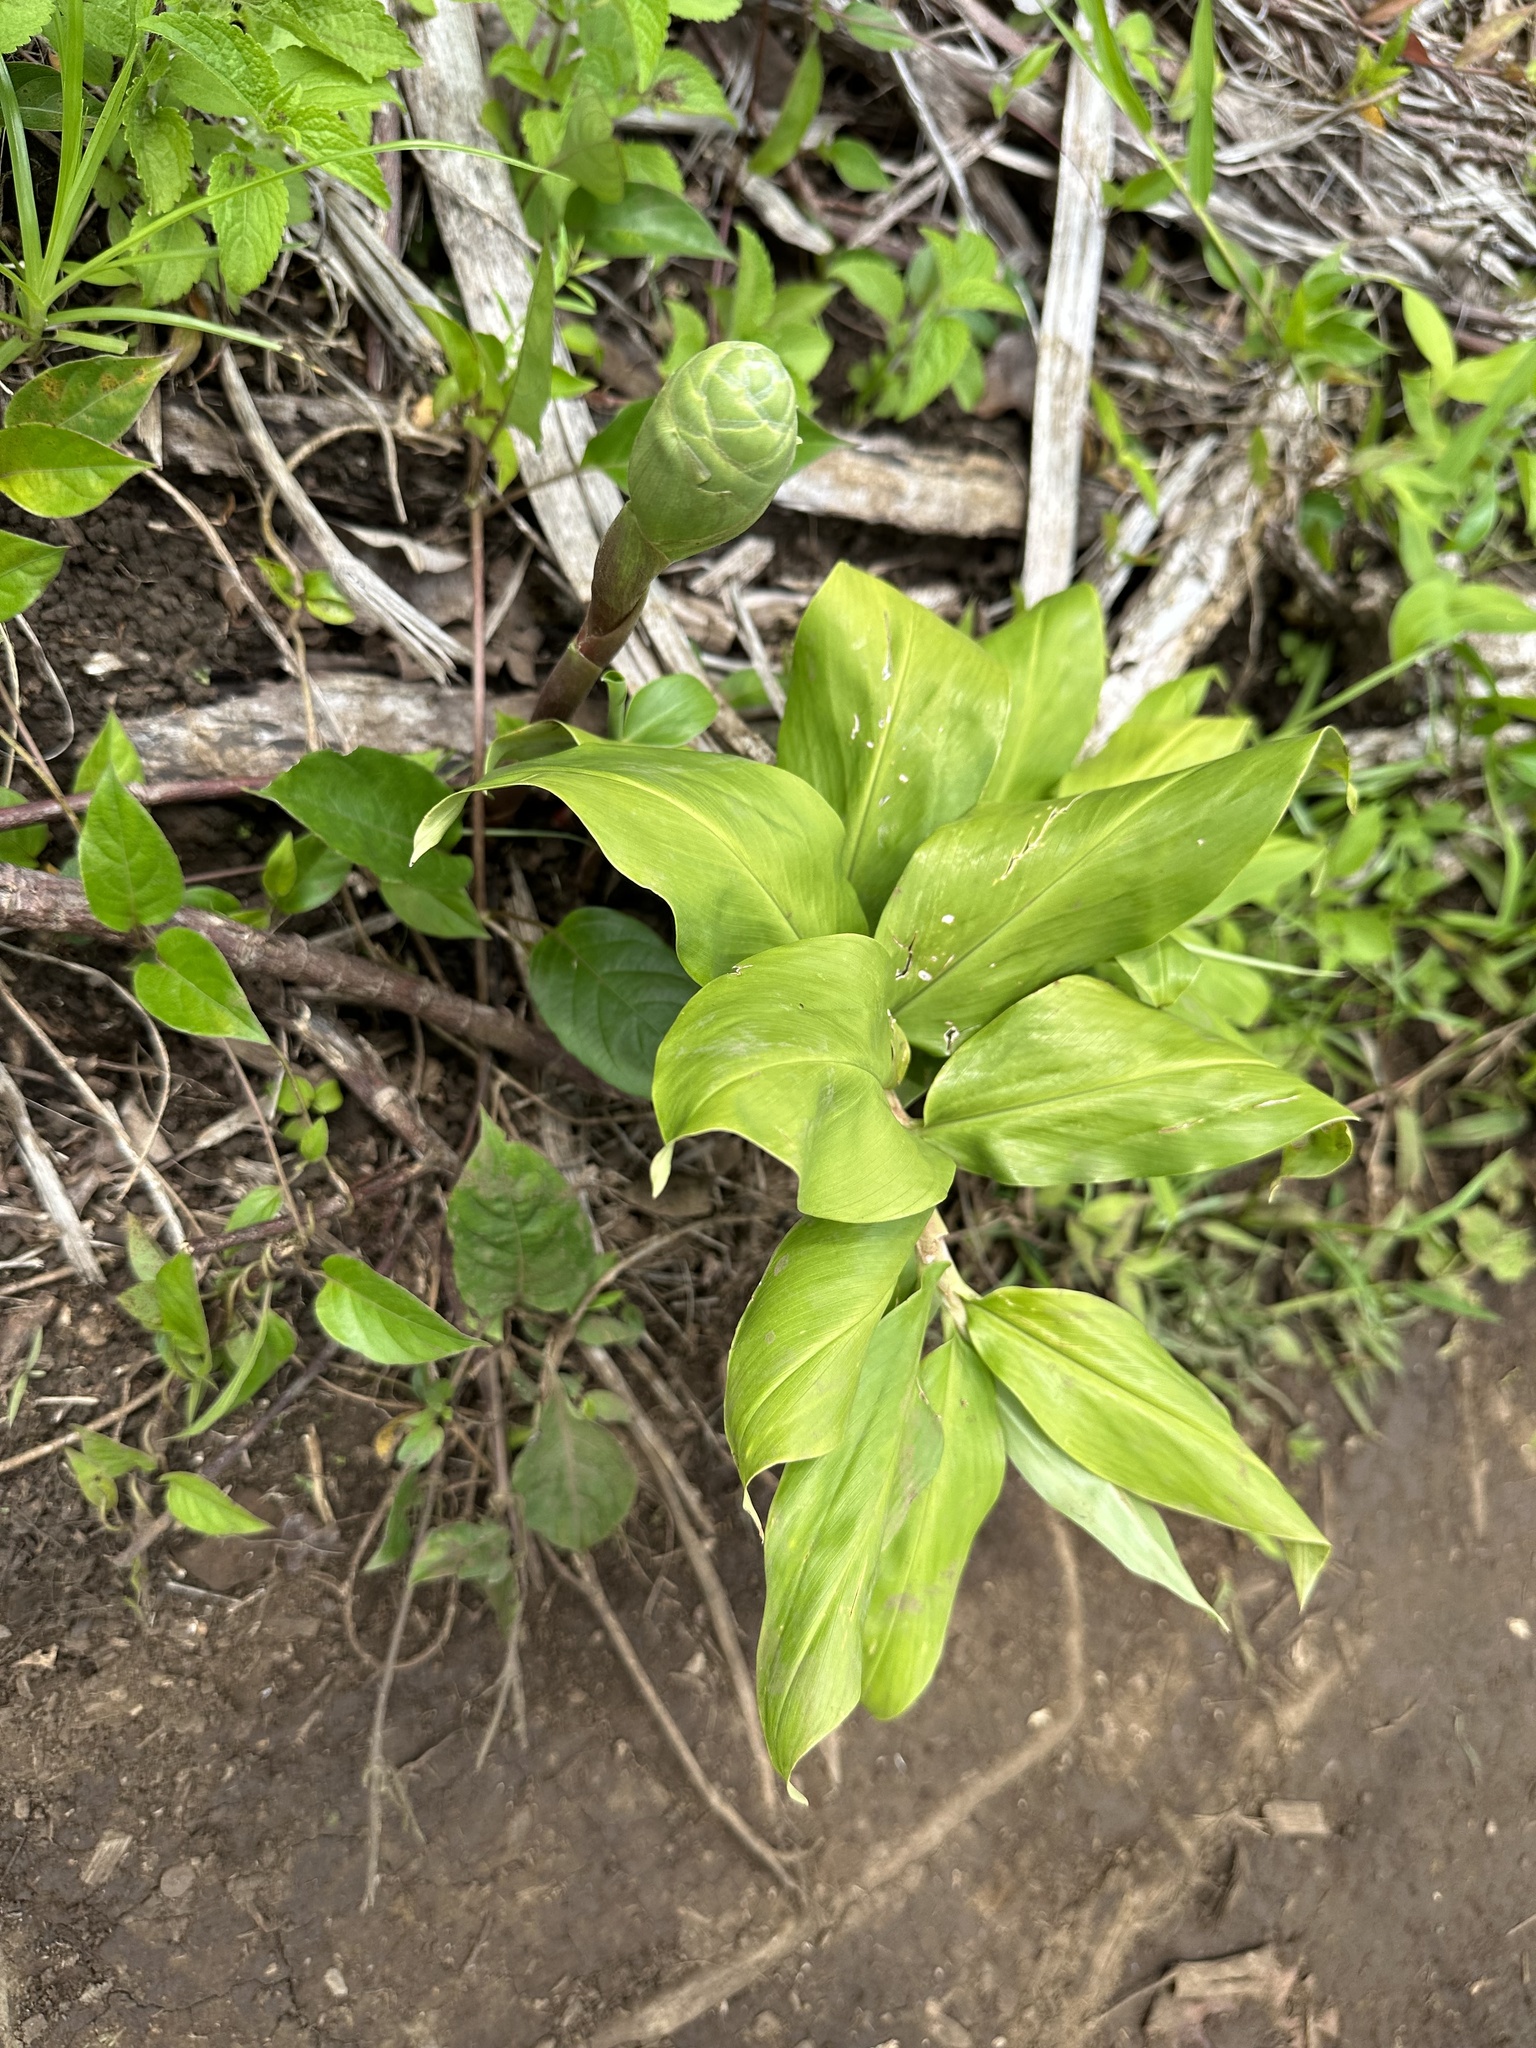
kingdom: Plantae
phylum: Tracheophyta
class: Liliopsida
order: Zingiberales
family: Zingiberaceae
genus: Zingiber
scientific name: Zingiber zerumbet
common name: Bitter ginger
